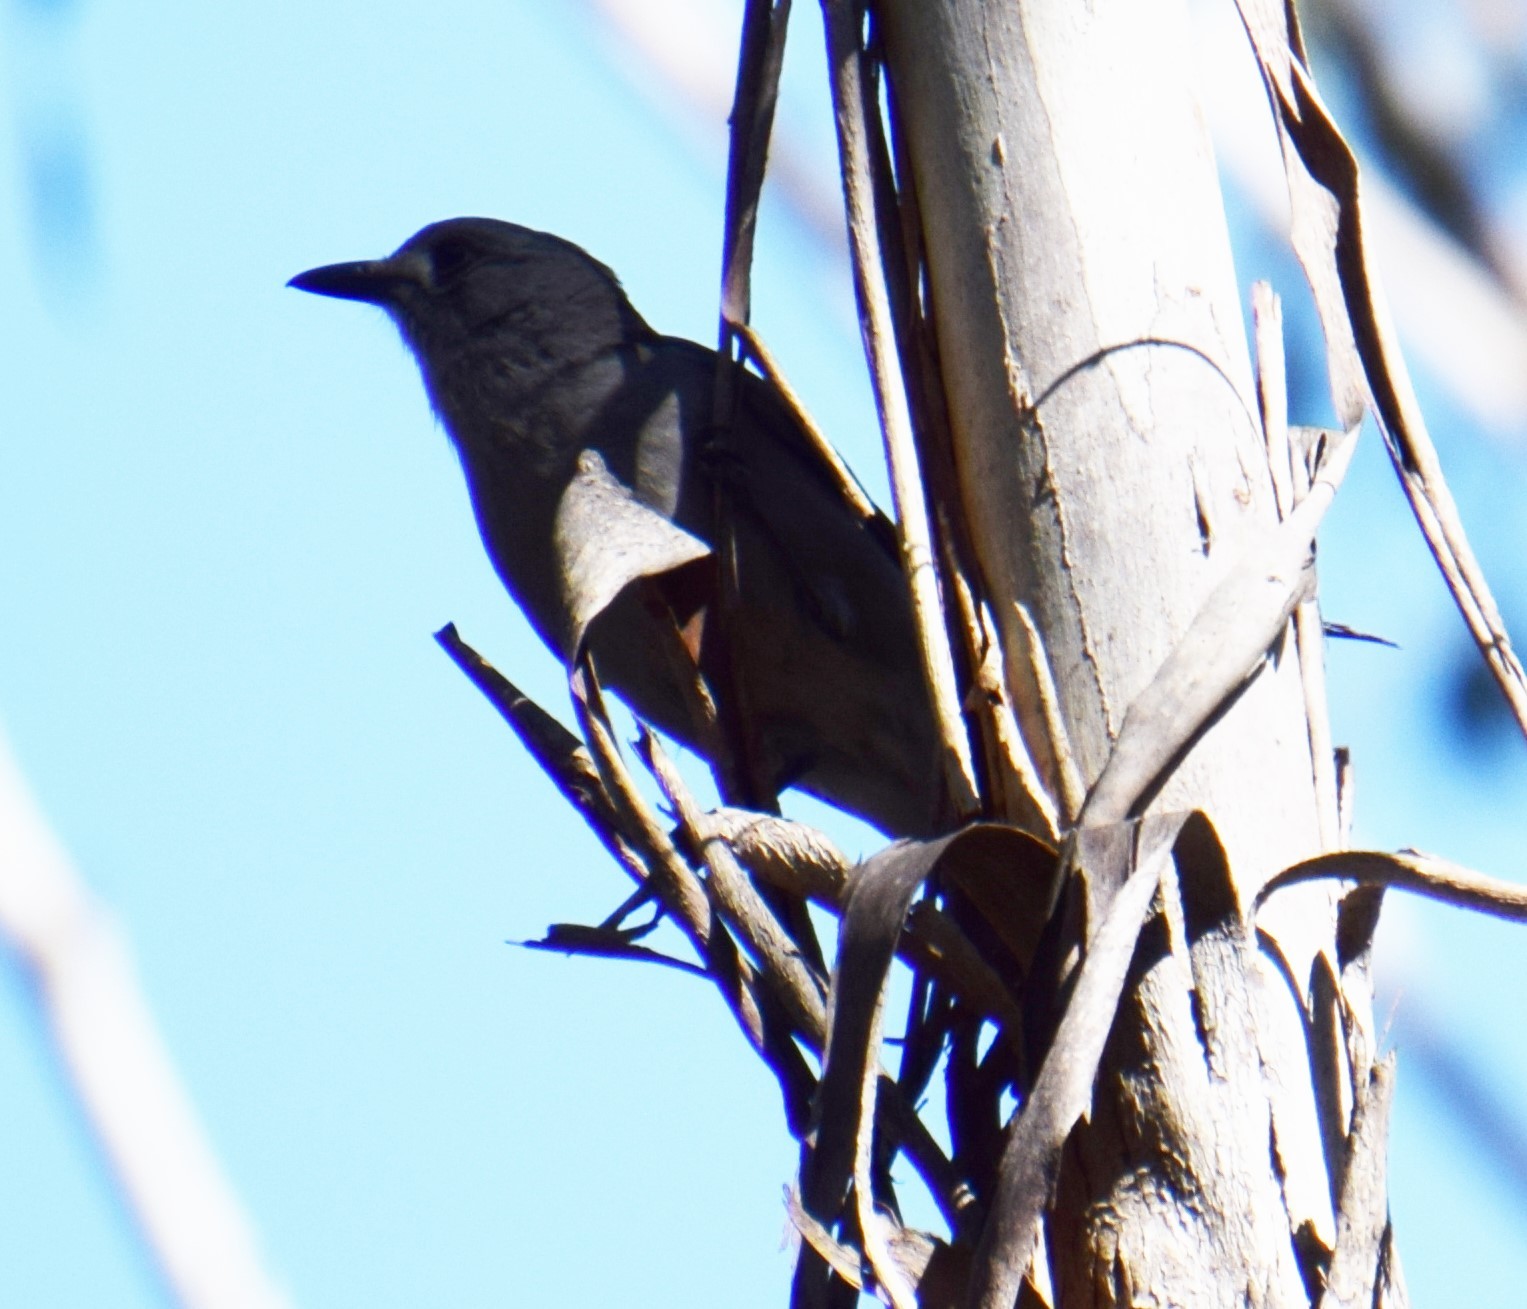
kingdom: Animalia
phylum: Chordata
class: Aves
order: Passeriformes
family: Pachycephalidae
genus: Colluricincla
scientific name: Colluricincla harmonica
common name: Grey shrikethrush
